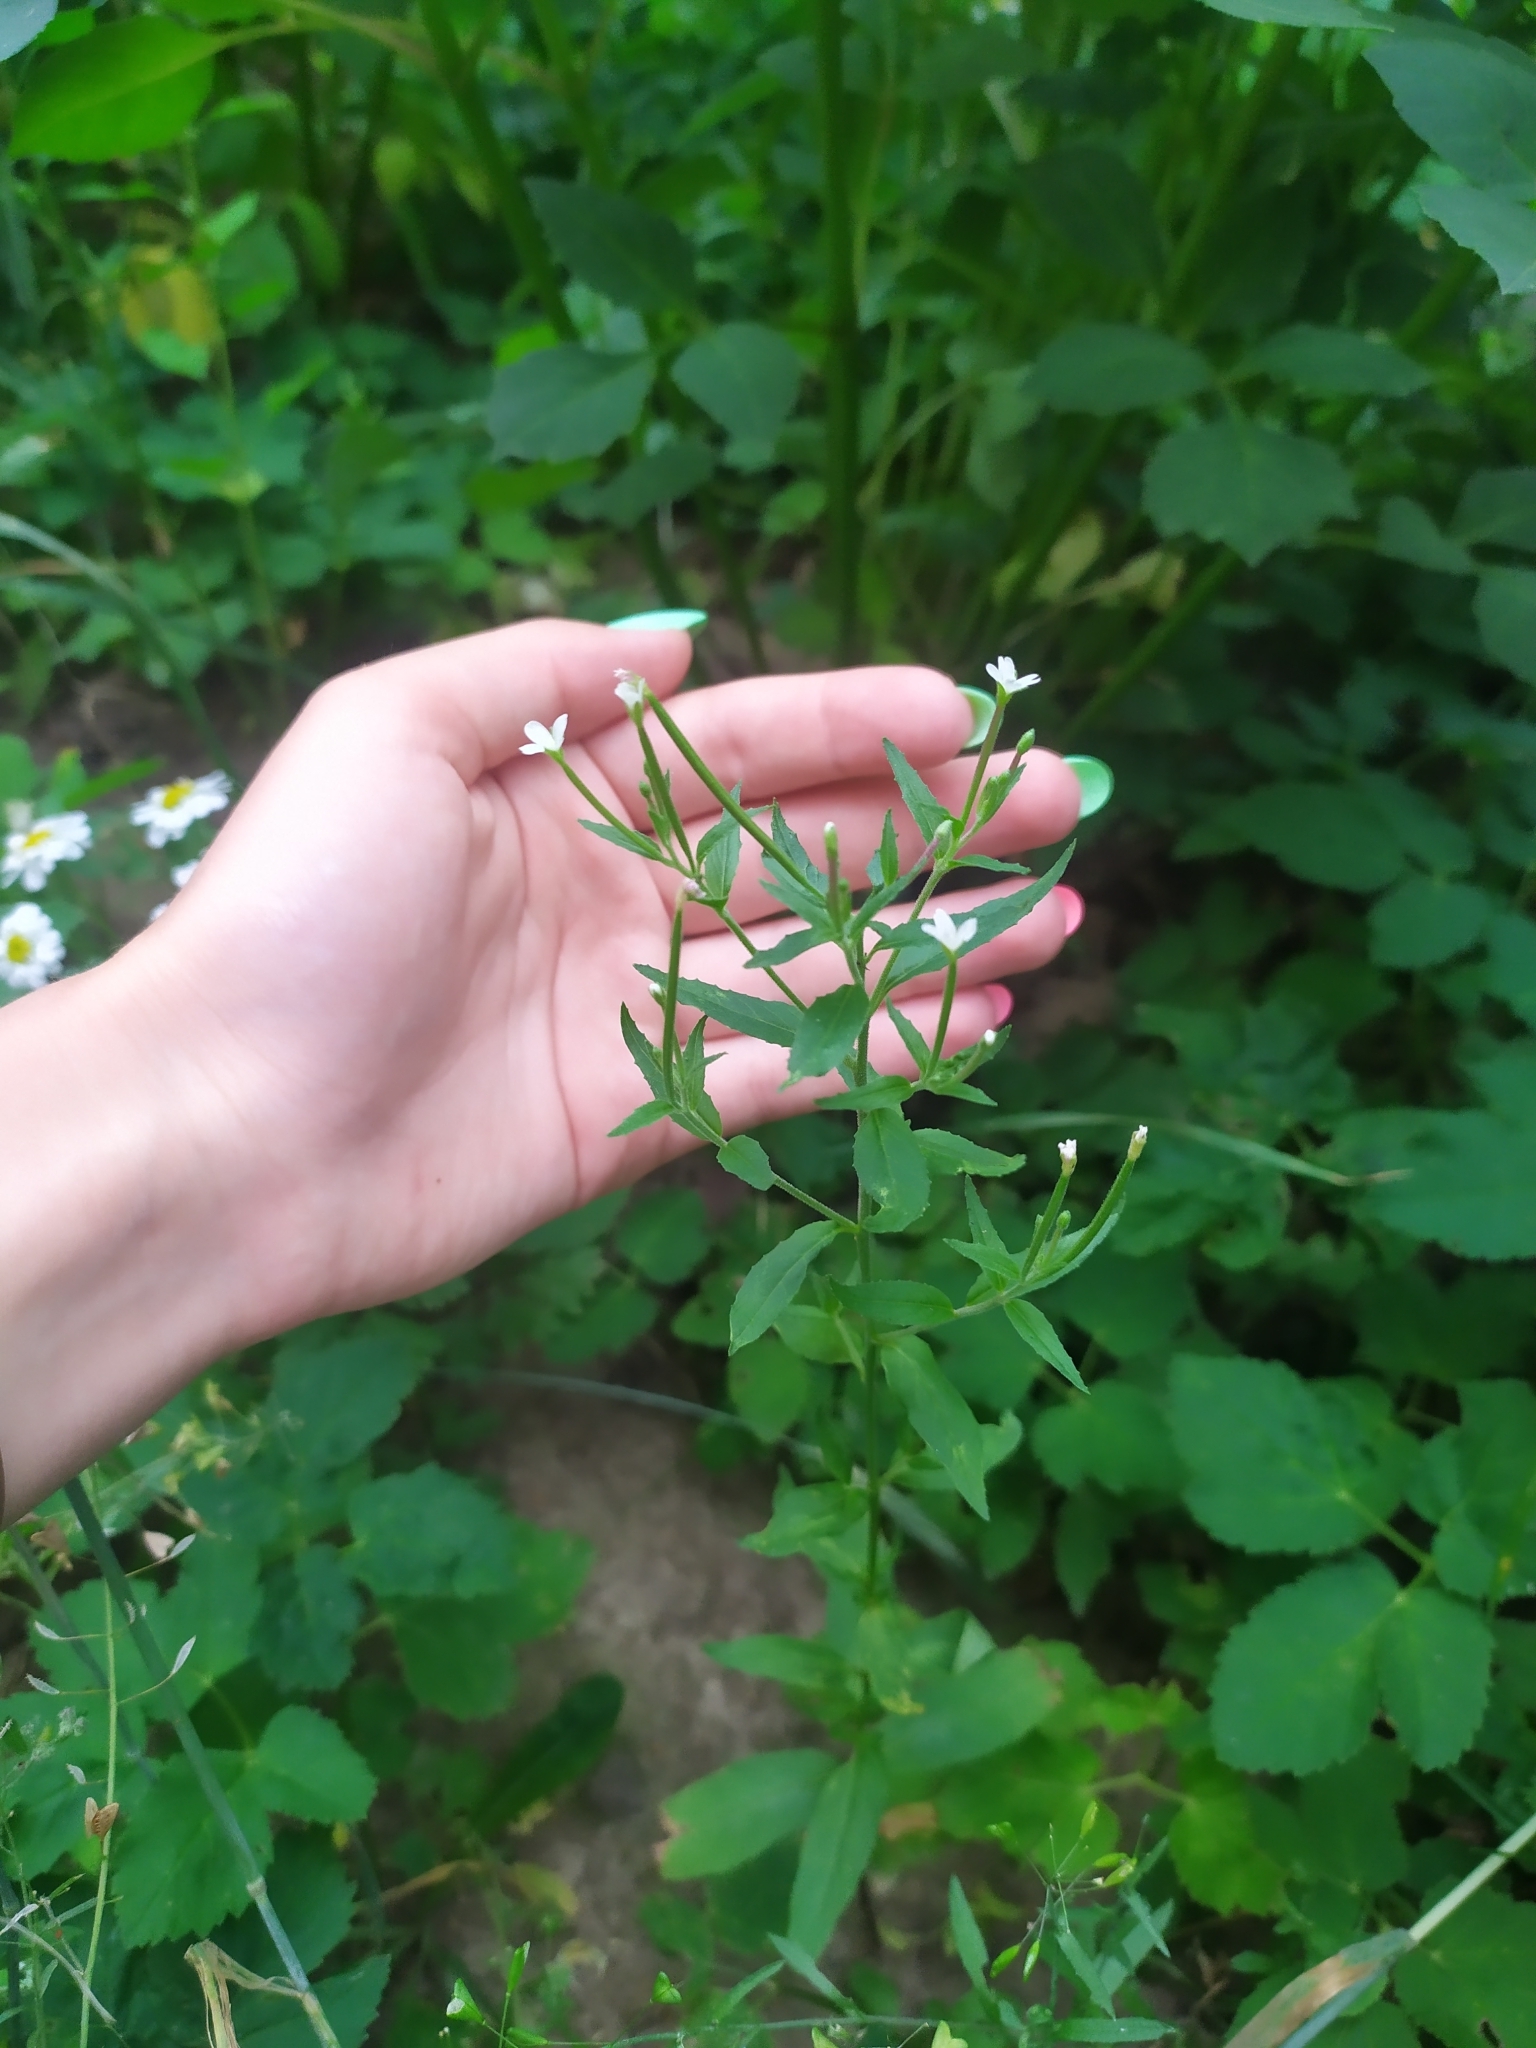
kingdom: Plantae
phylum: Tracheophyta
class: Magnoliopsida
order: Myrtales
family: Onagraceae
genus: Epilobium
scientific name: Epilobium pseudorubescens
